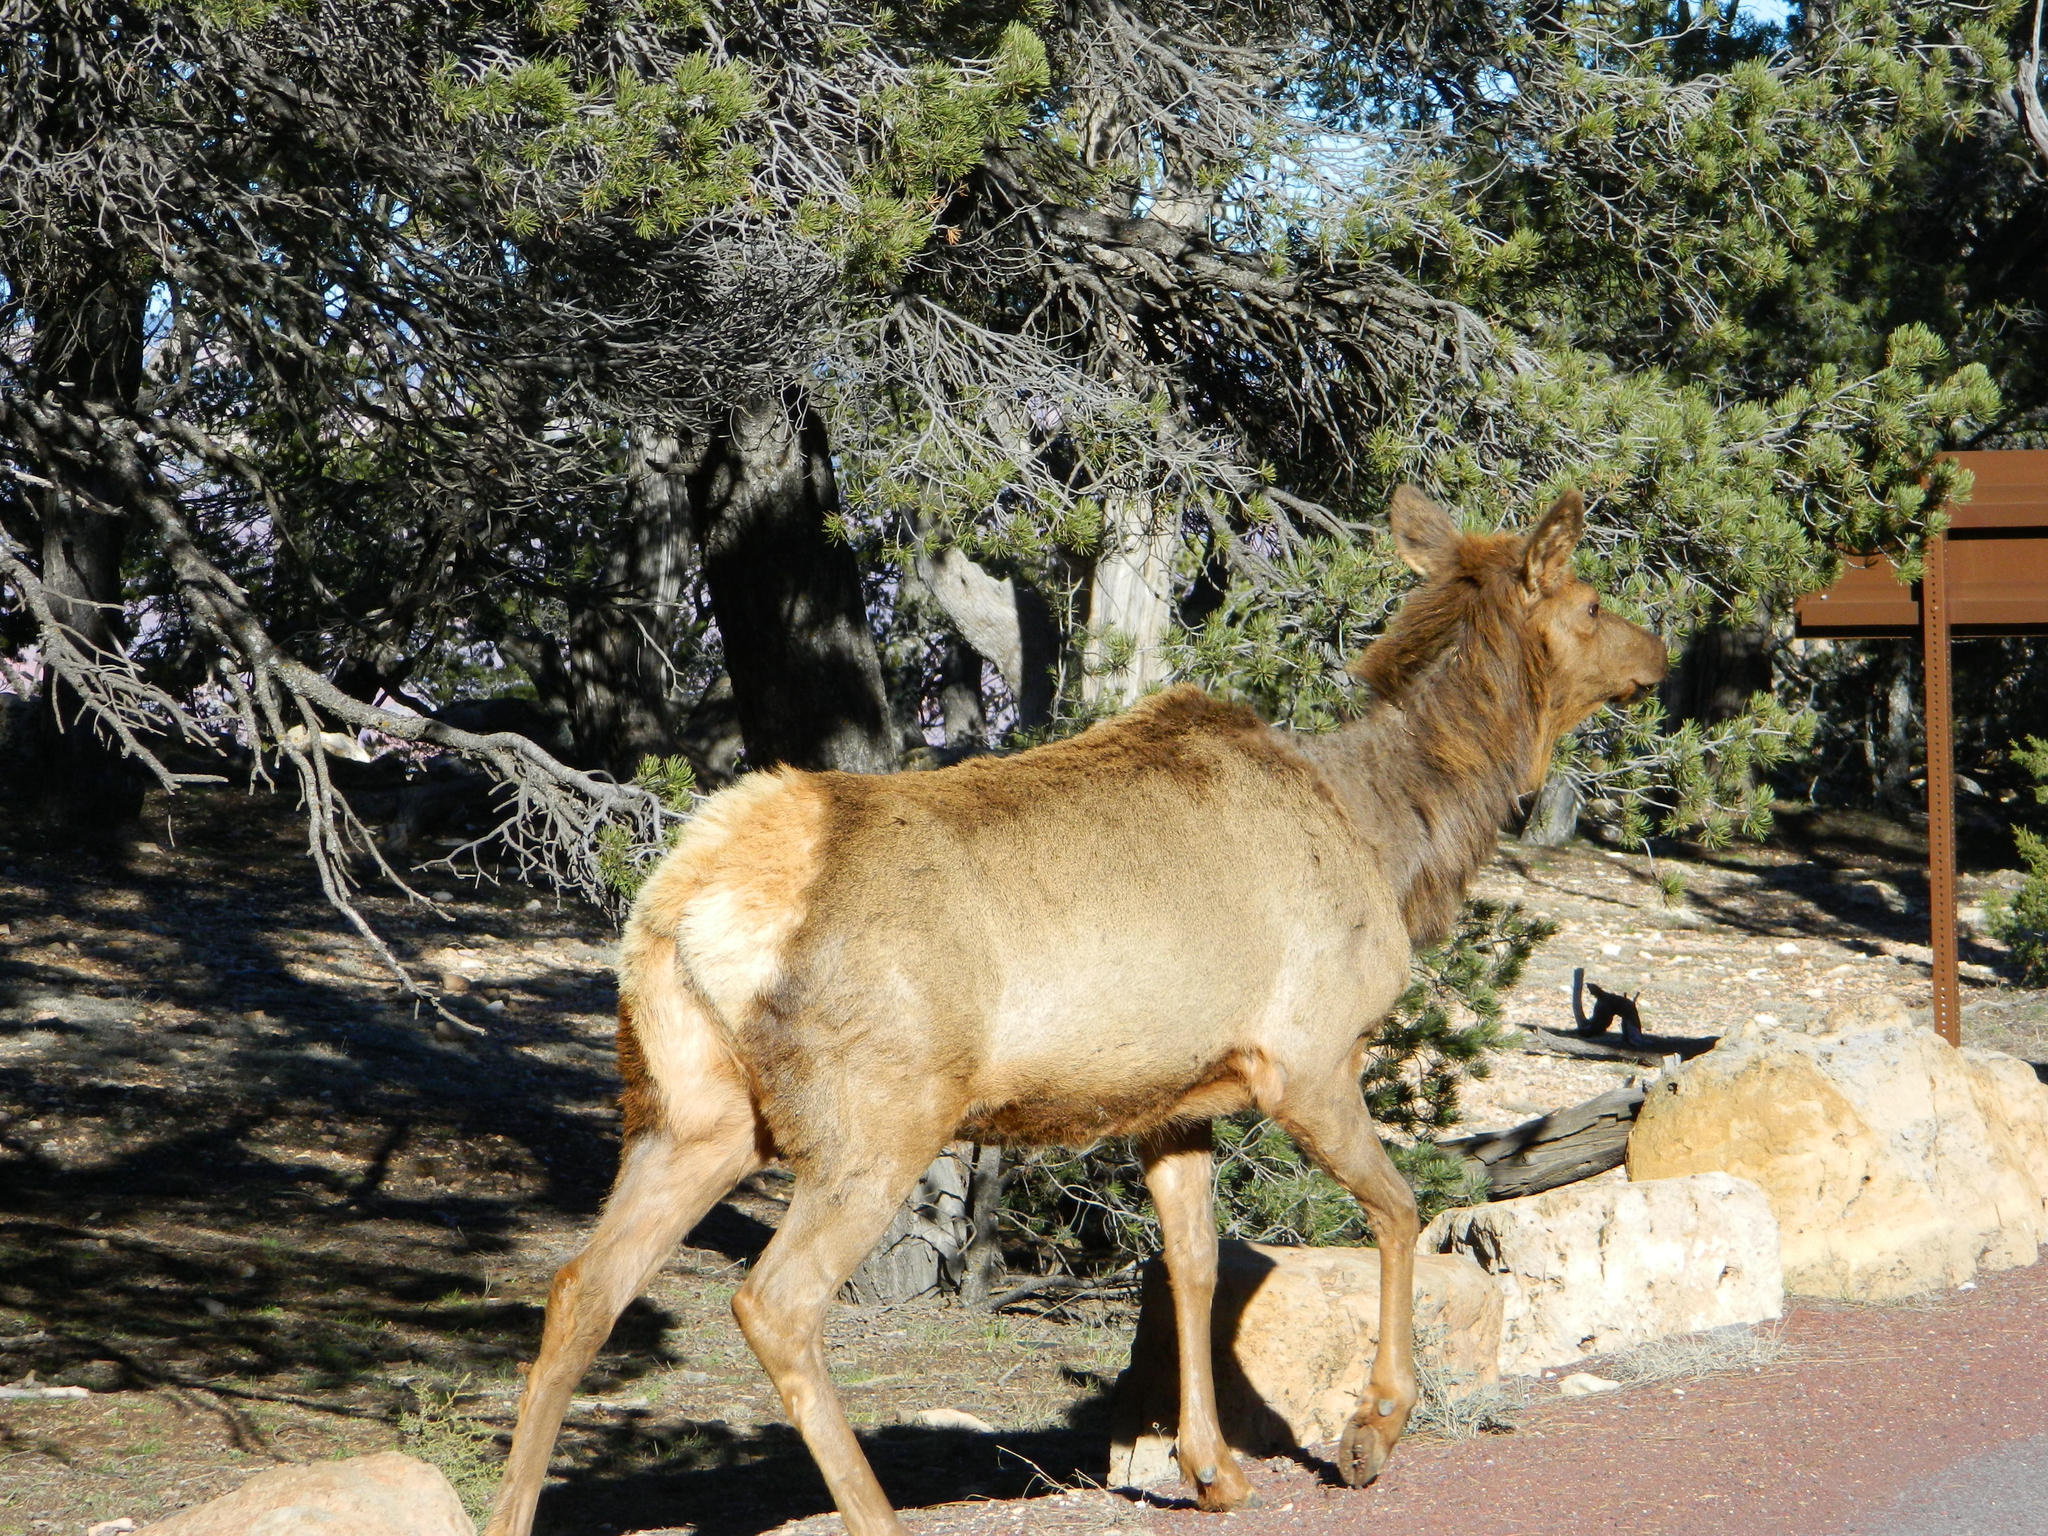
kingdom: Animalia
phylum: Chordata
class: Mammalia
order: Artiodactyla
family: Cervidae
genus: Cervus
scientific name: Cervus elaphus
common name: Red deer
